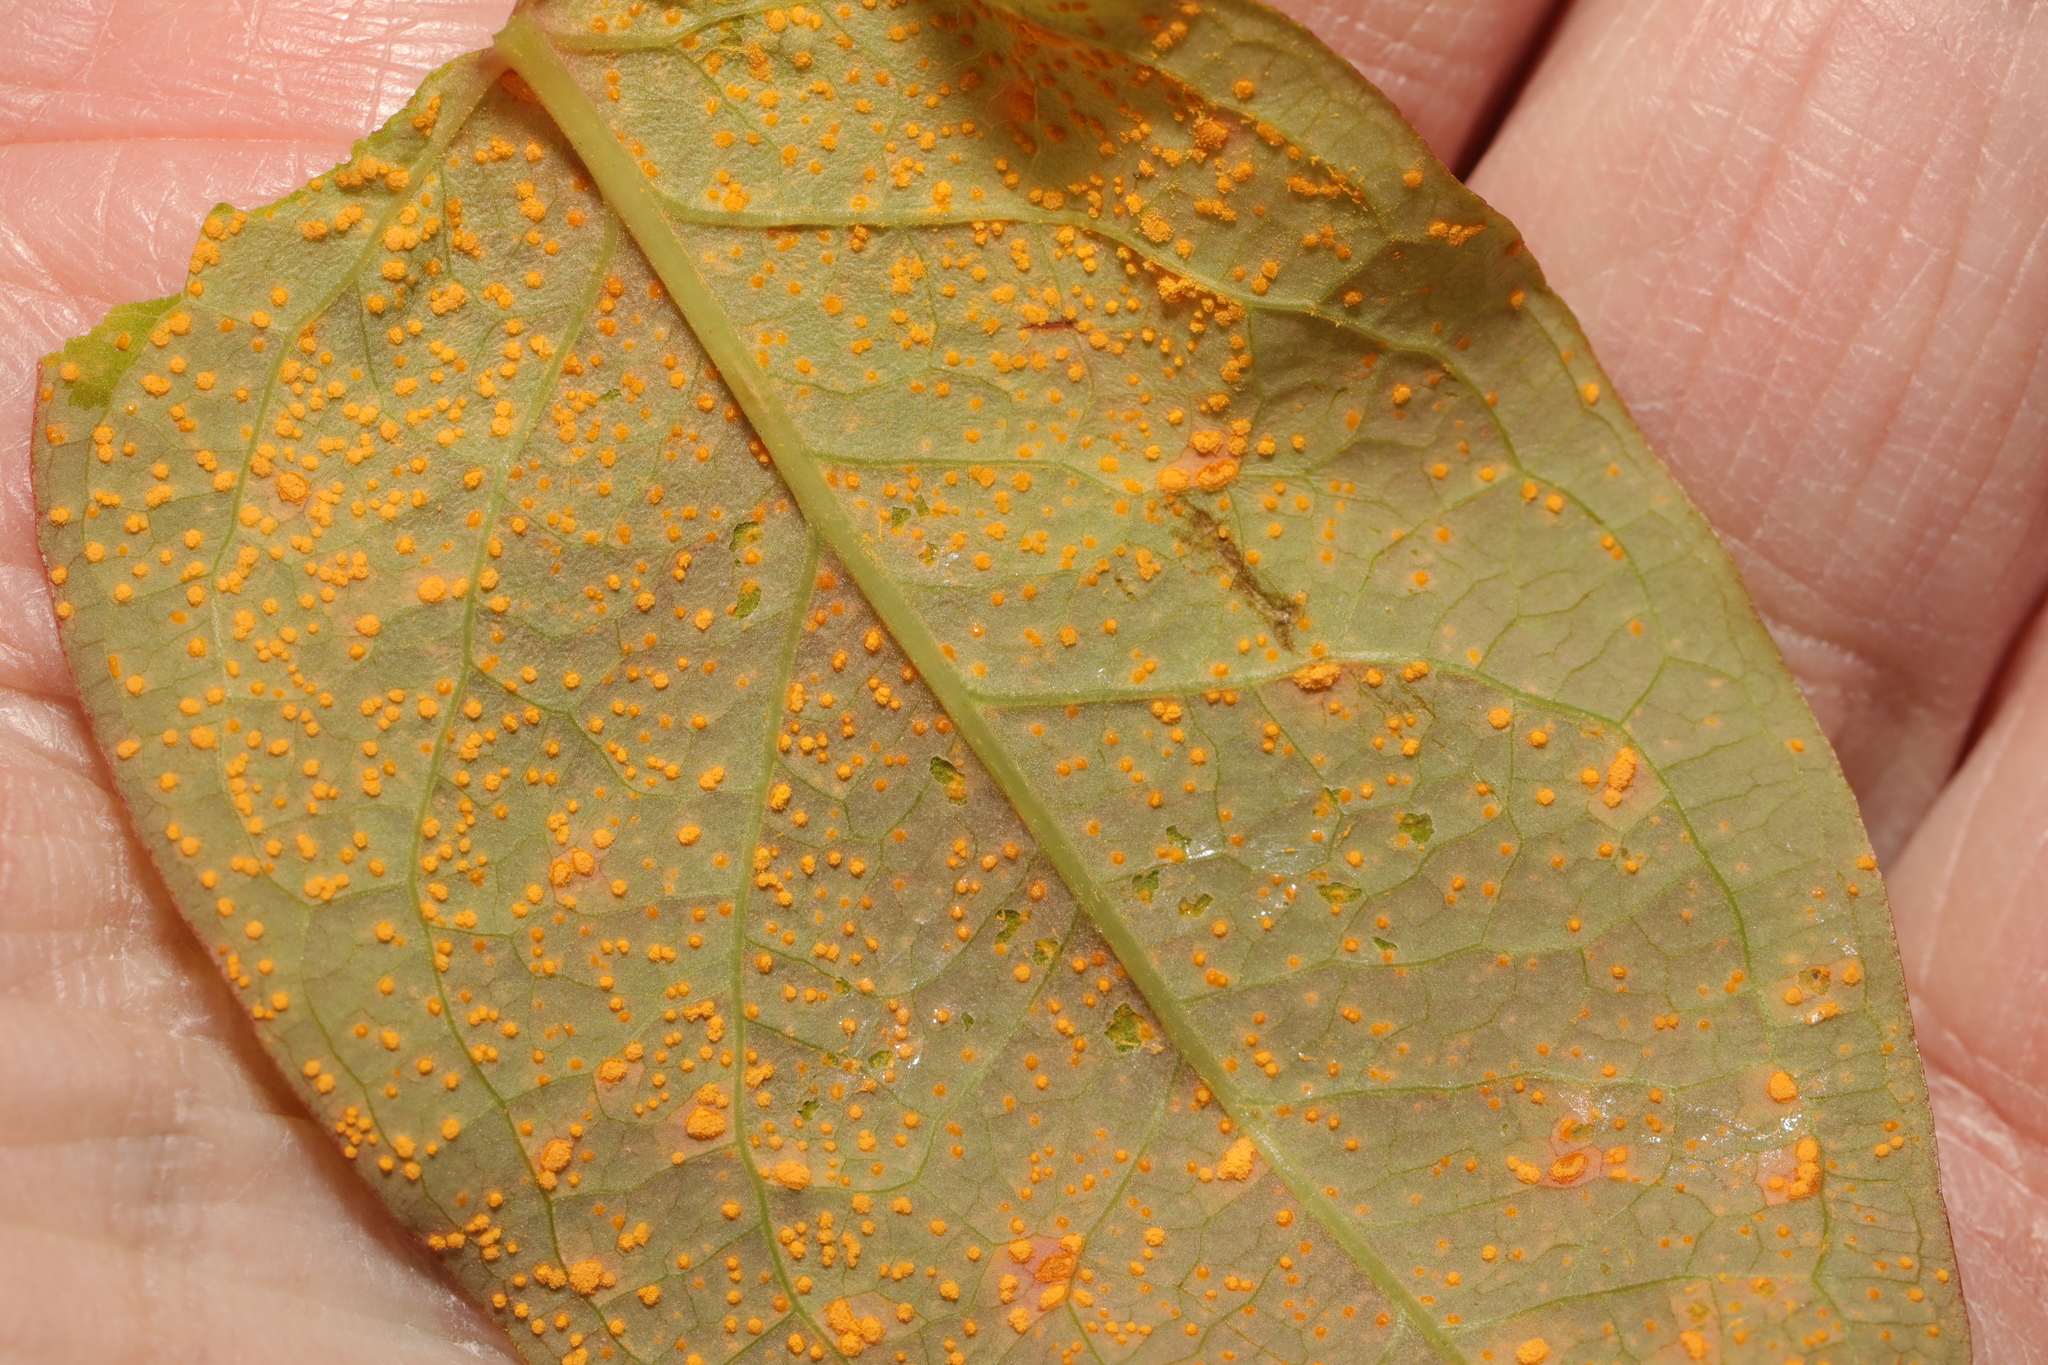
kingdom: Fungi
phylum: Basidiomycota
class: Pucciniomycetes
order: Pucciniales
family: Melampsoraceae
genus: Melampsora
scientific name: Melampsora
